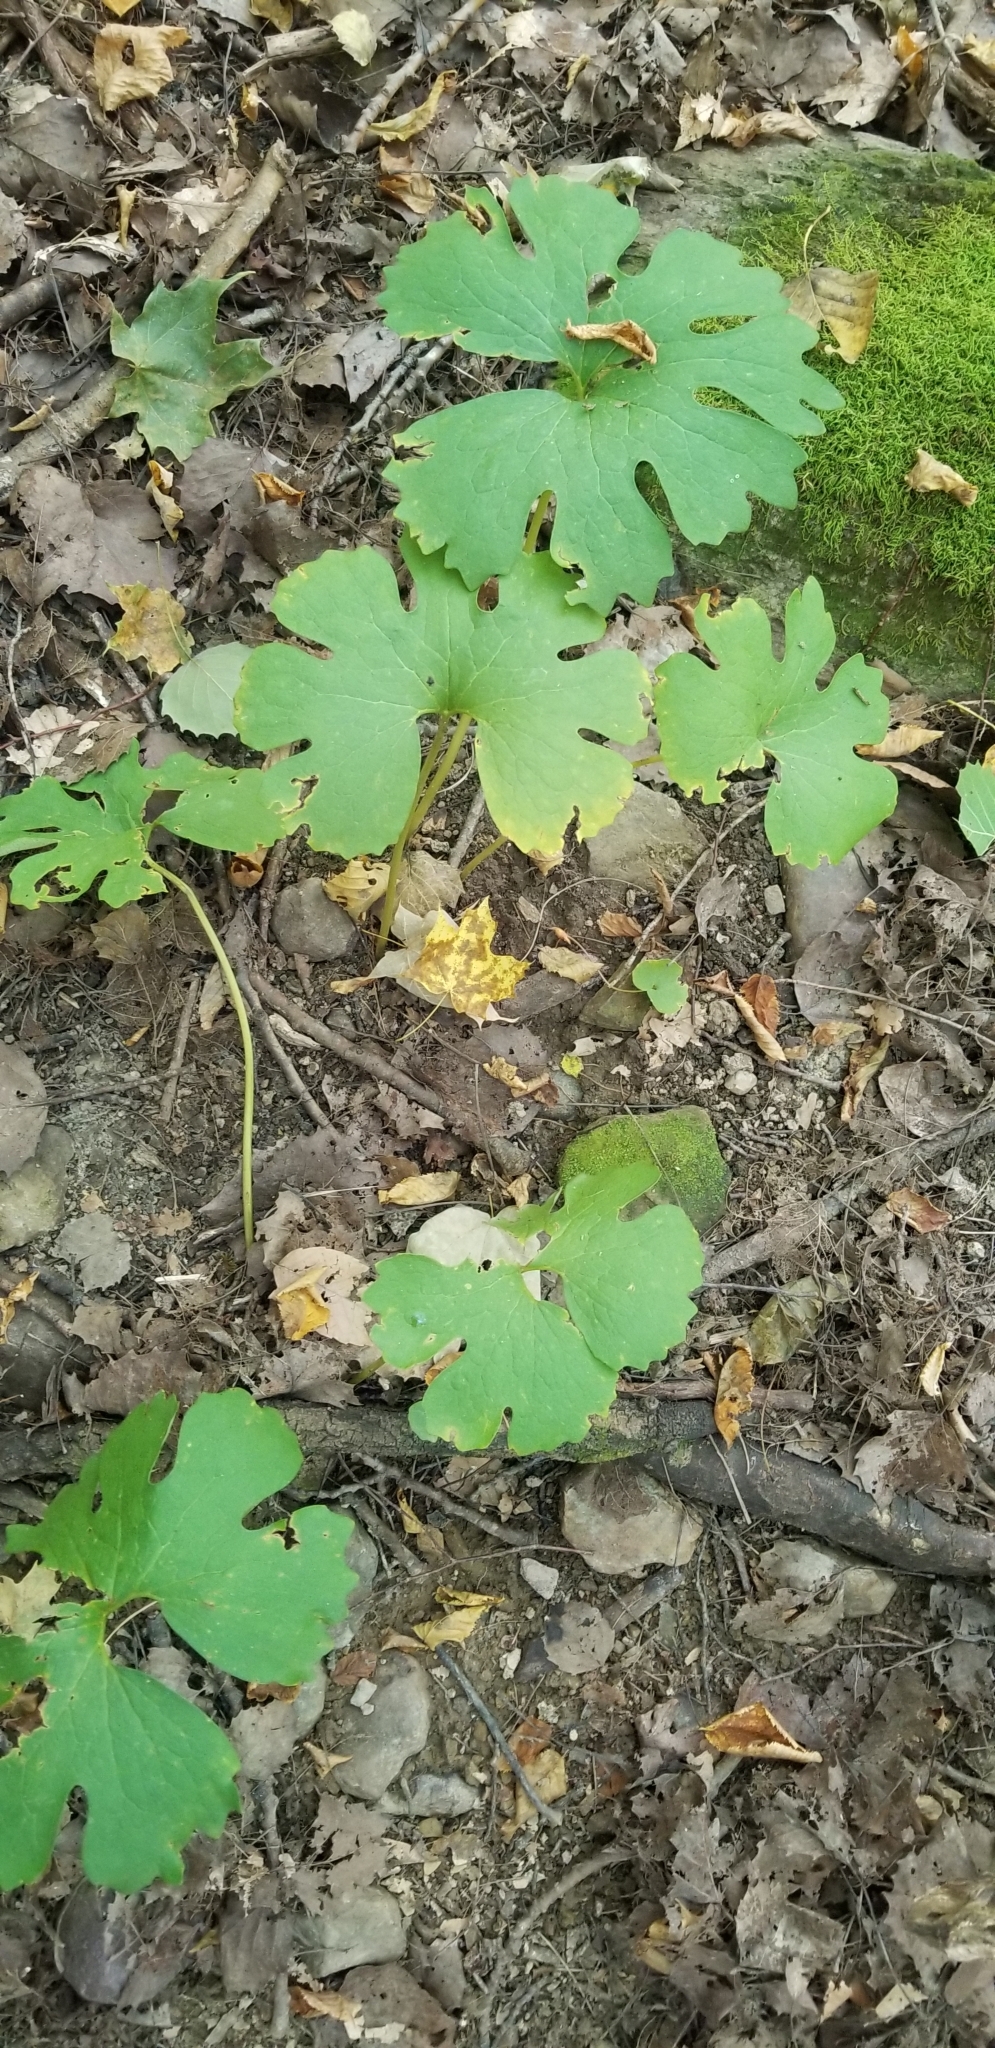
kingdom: Plantae
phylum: Tracheophyta
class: Magnoliopsida
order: Ranunculales
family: Papaveraceae
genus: Sanguinaria
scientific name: Sanguinaria canadensis
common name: Bloodroot
